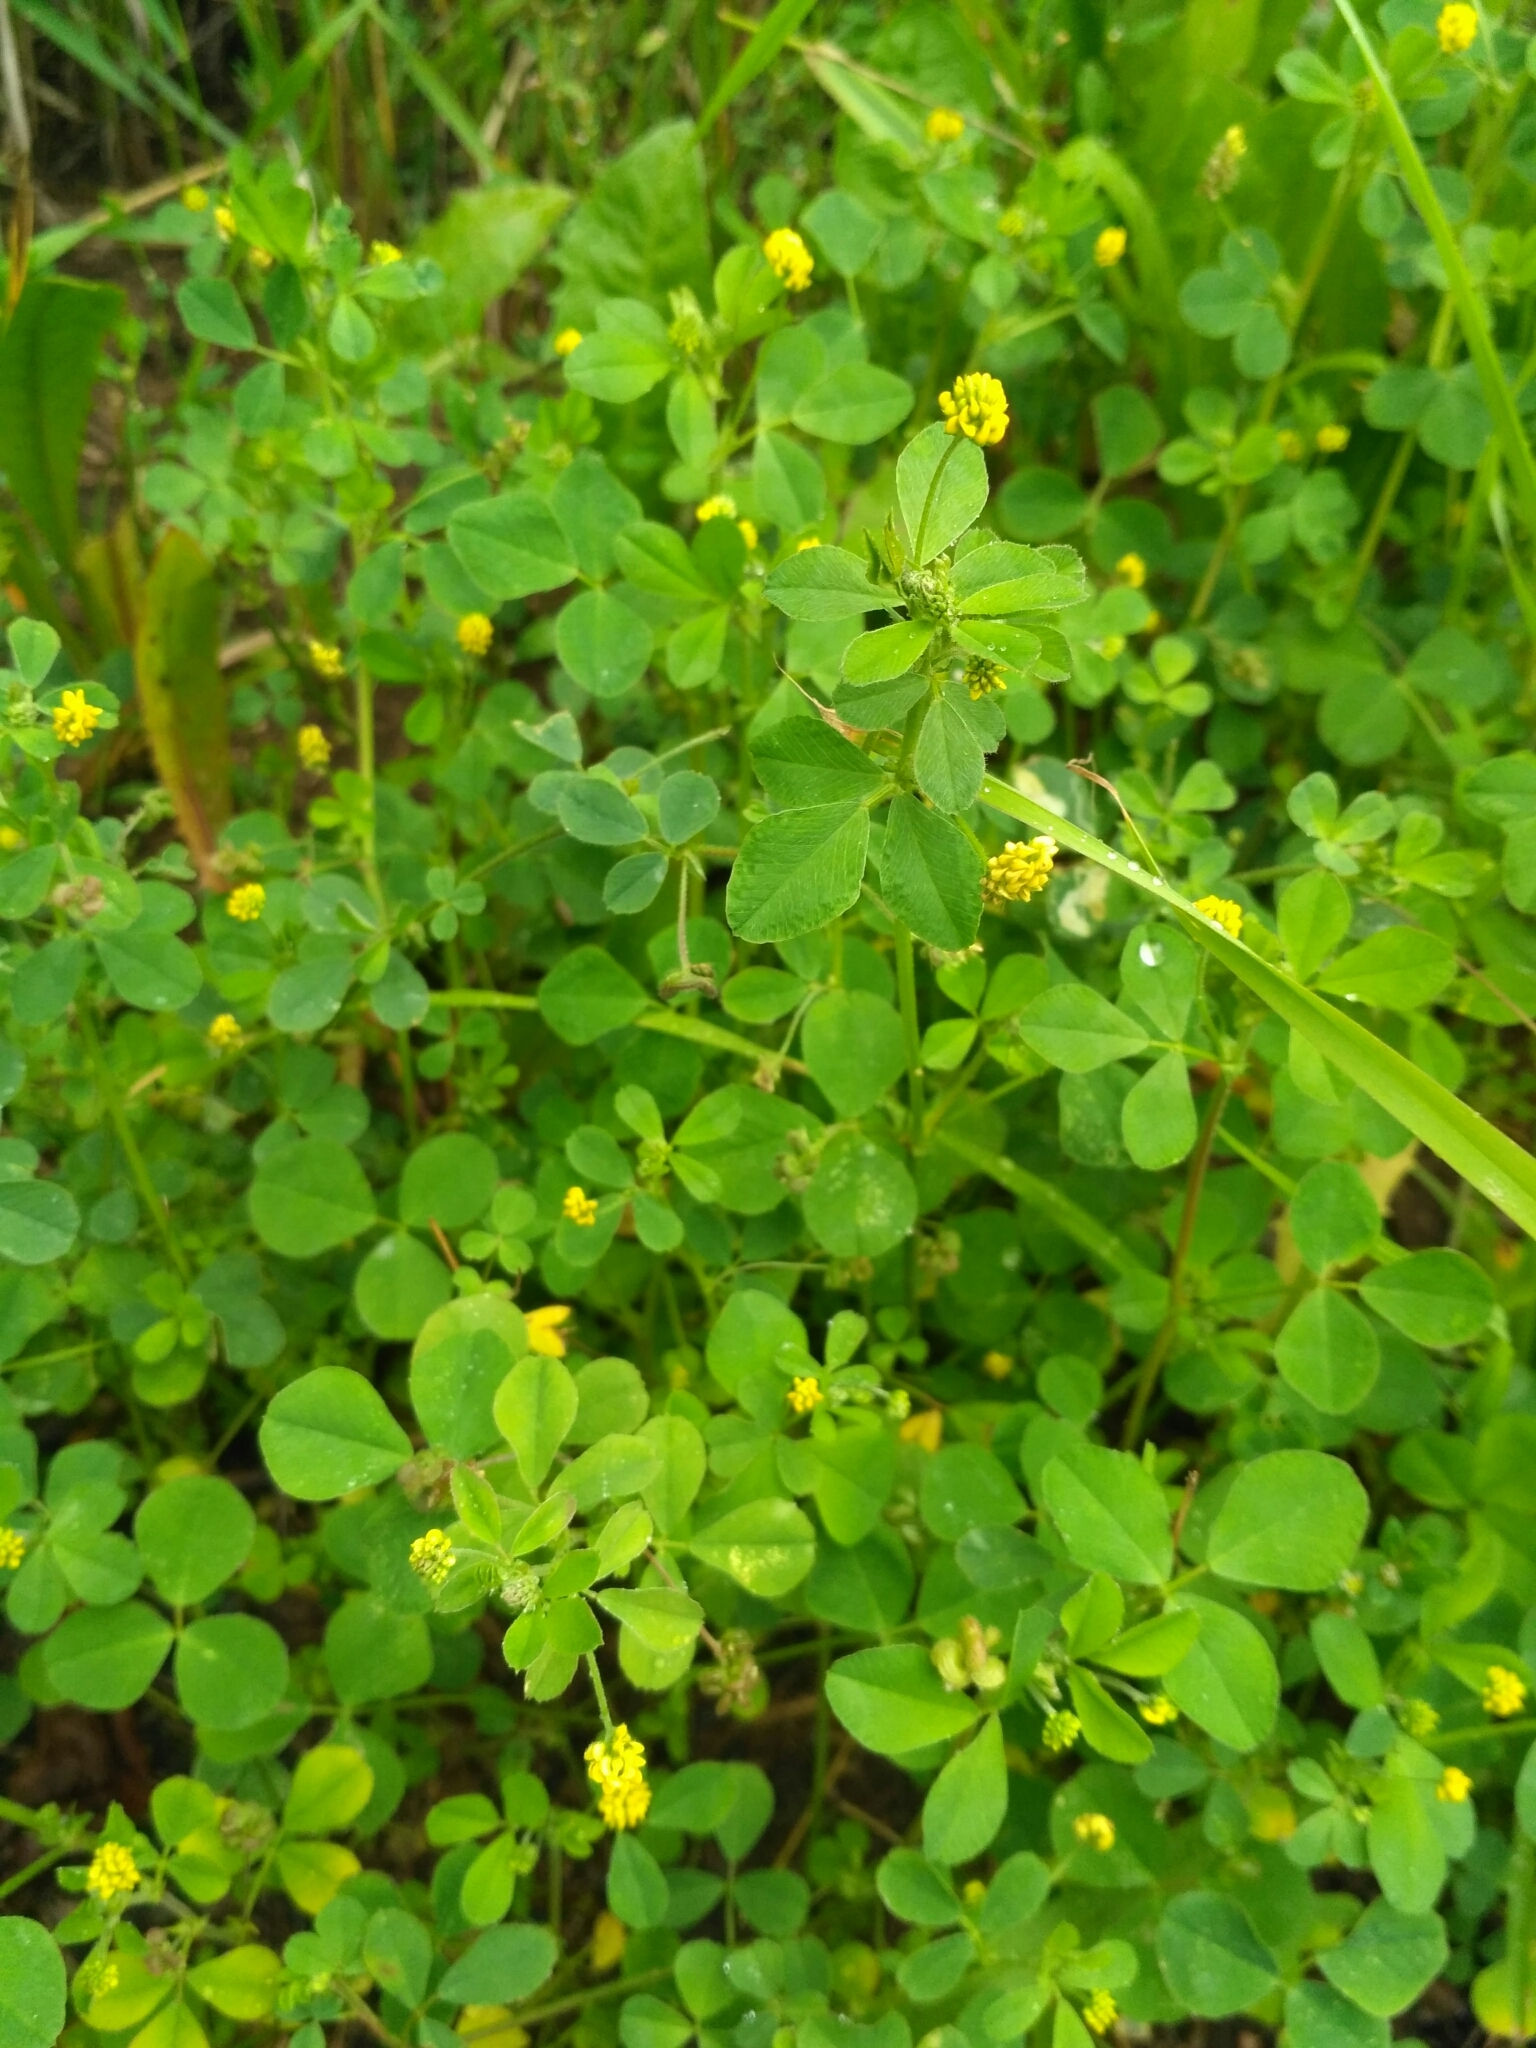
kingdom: Plantae
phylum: Tracheophyta
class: Magnoliopsida
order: Fabales
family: Fabaceae
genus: Medicago
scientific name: Medicago lupulina
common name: Black medick
